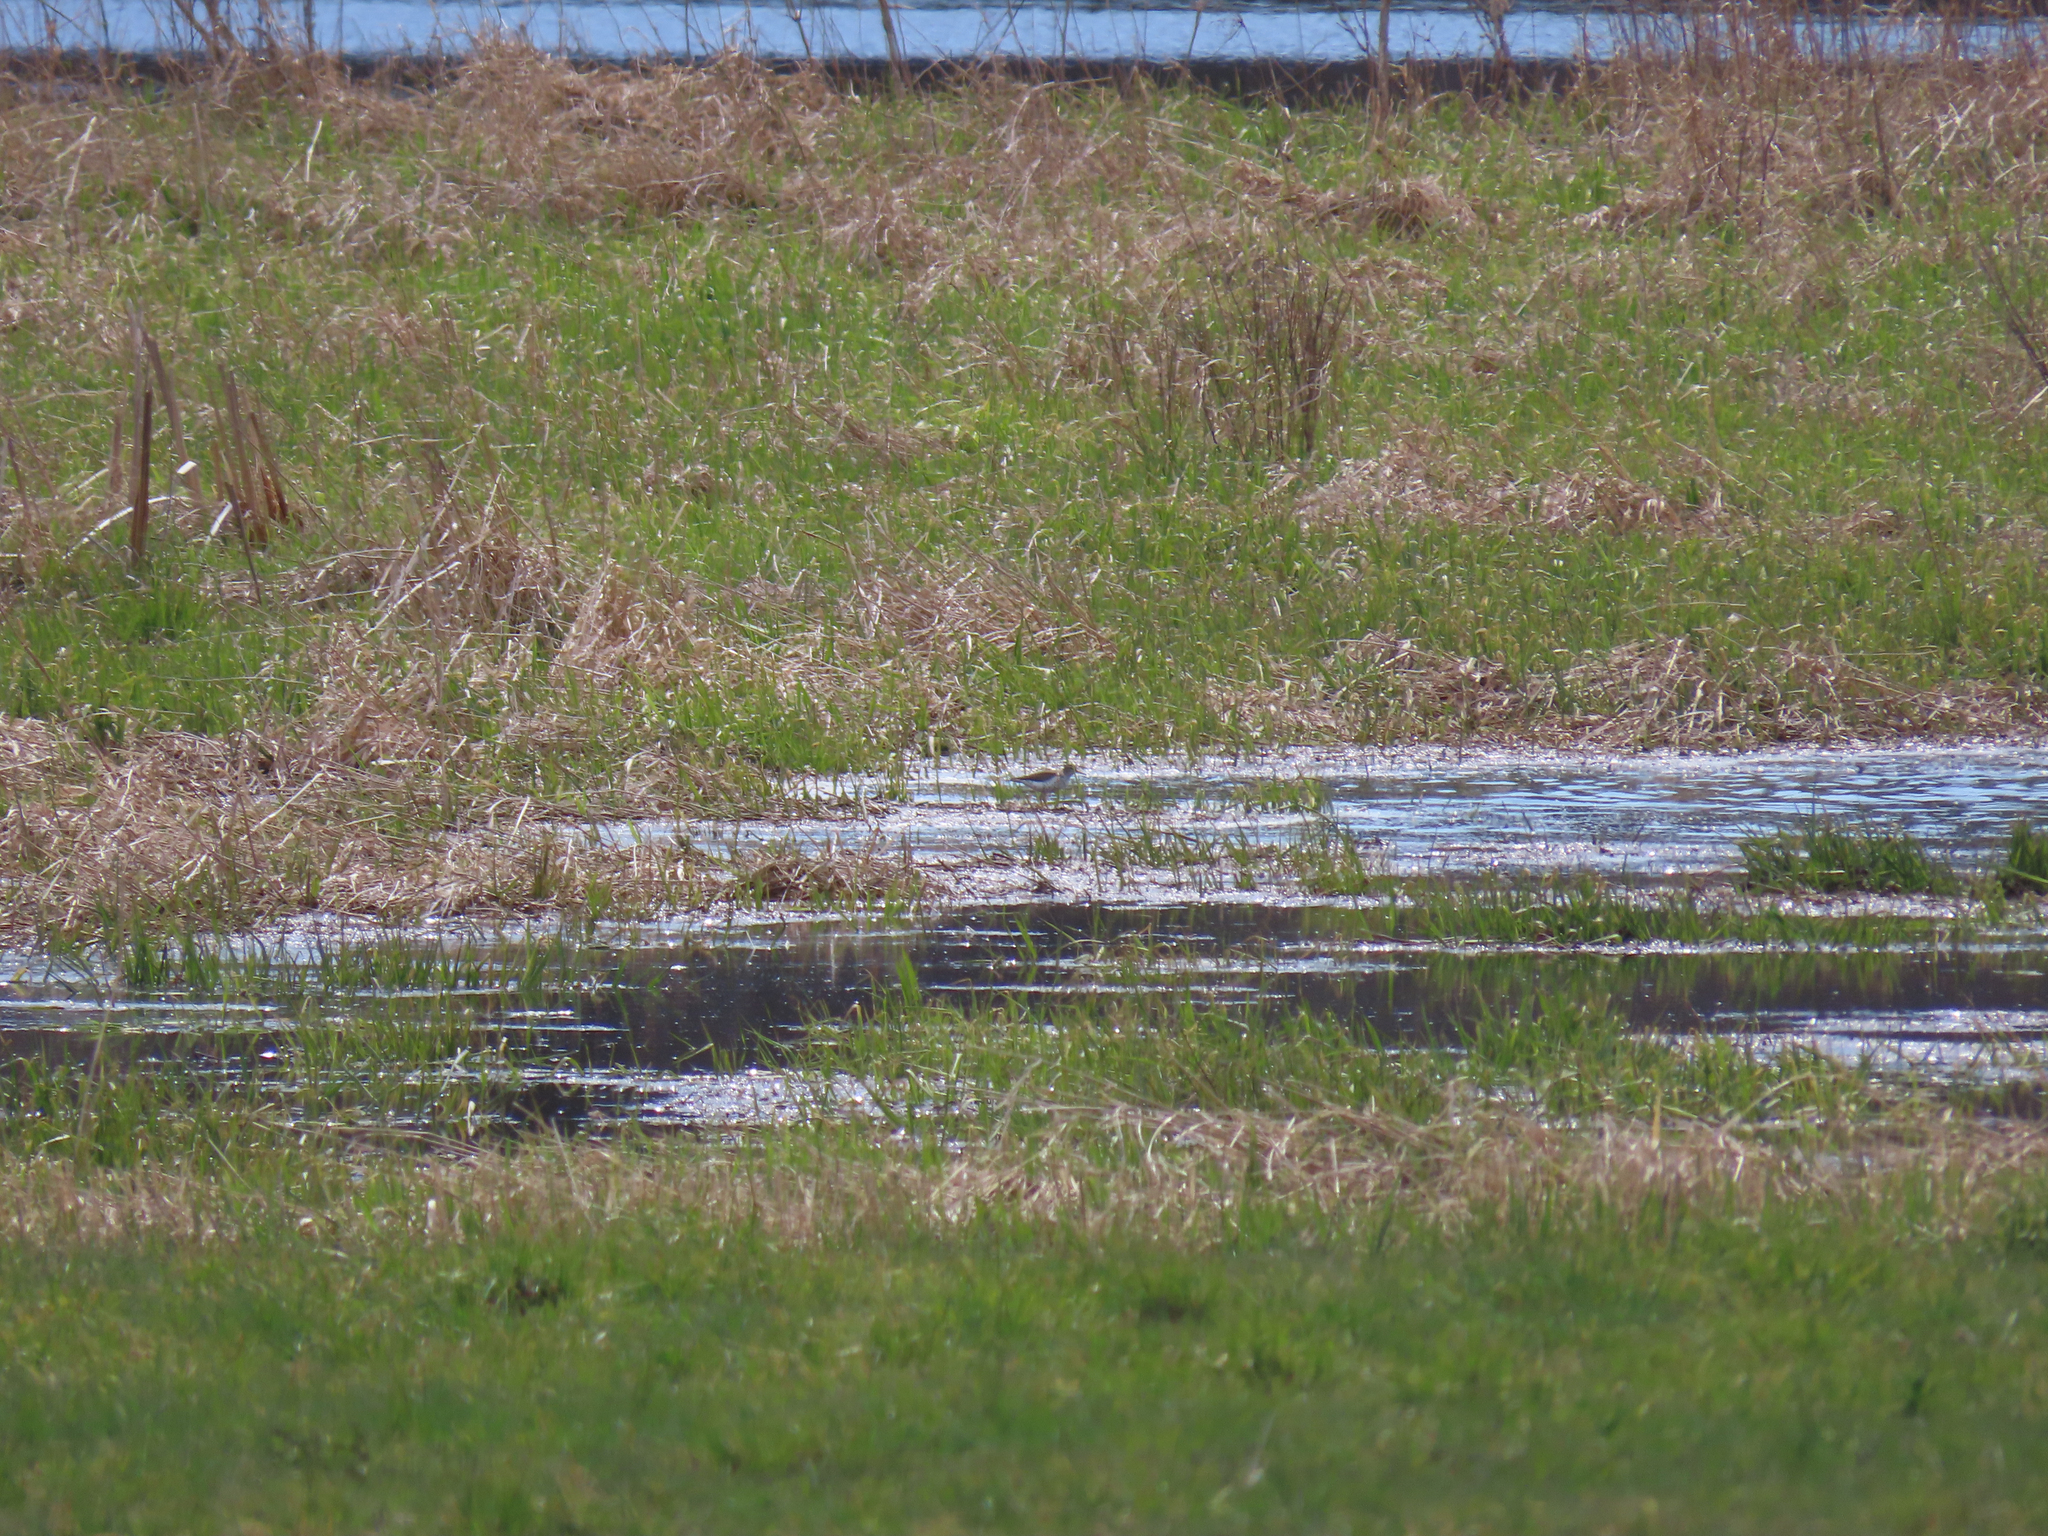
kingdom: Animalia
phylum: Chordata
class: Aves
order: Charadriiformes
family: Scolopacidae
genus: Actitis
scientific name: Actitis macularius
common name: Spotted sandpiper
